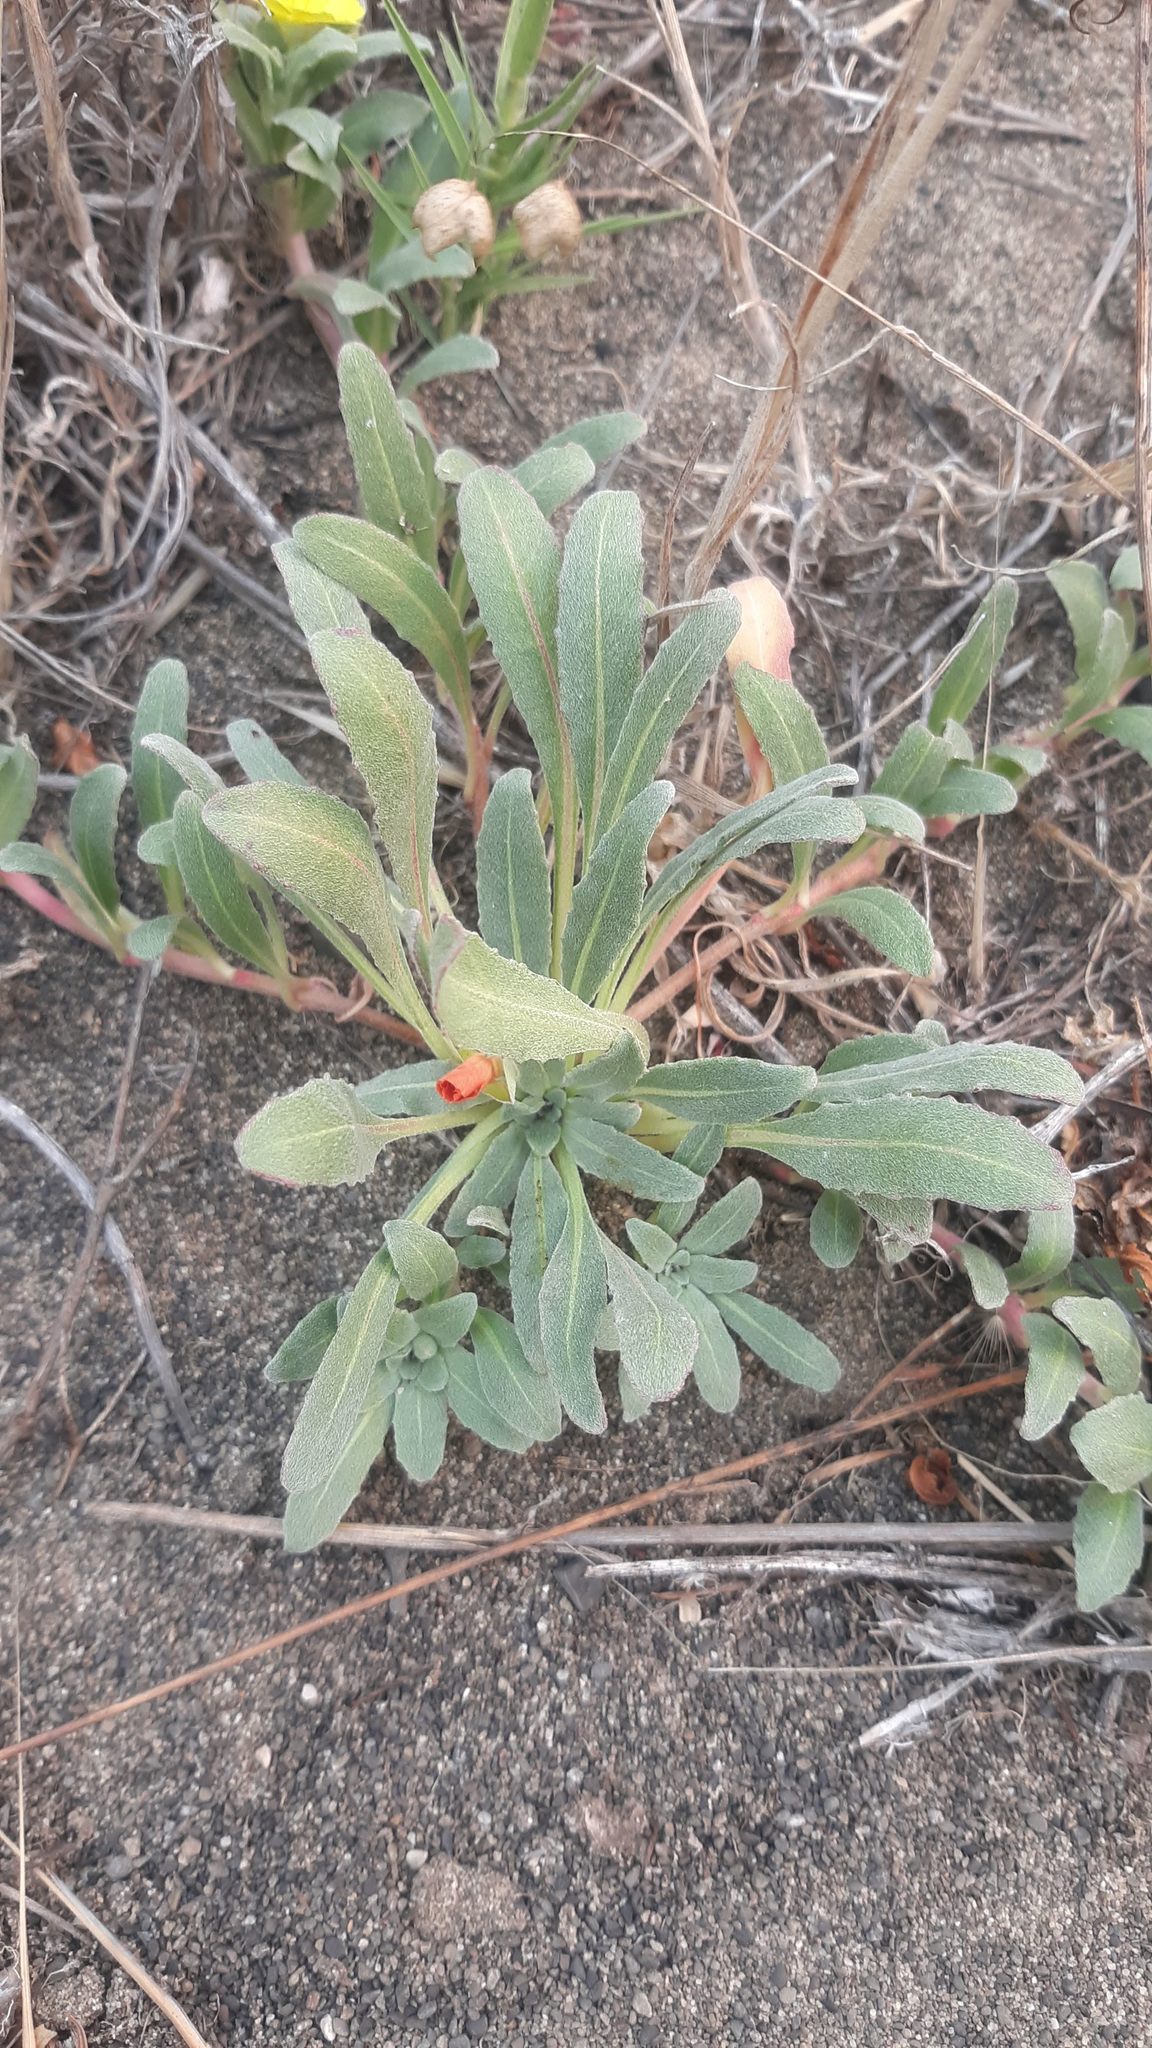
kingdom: Plantae
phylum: Tracheophyta
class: Magnoliopsida
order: Myrtales
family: Onagraceae
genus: Camissoniopsis
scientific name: Camissoniopsis cheiranthifolia
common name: Beach suncup
